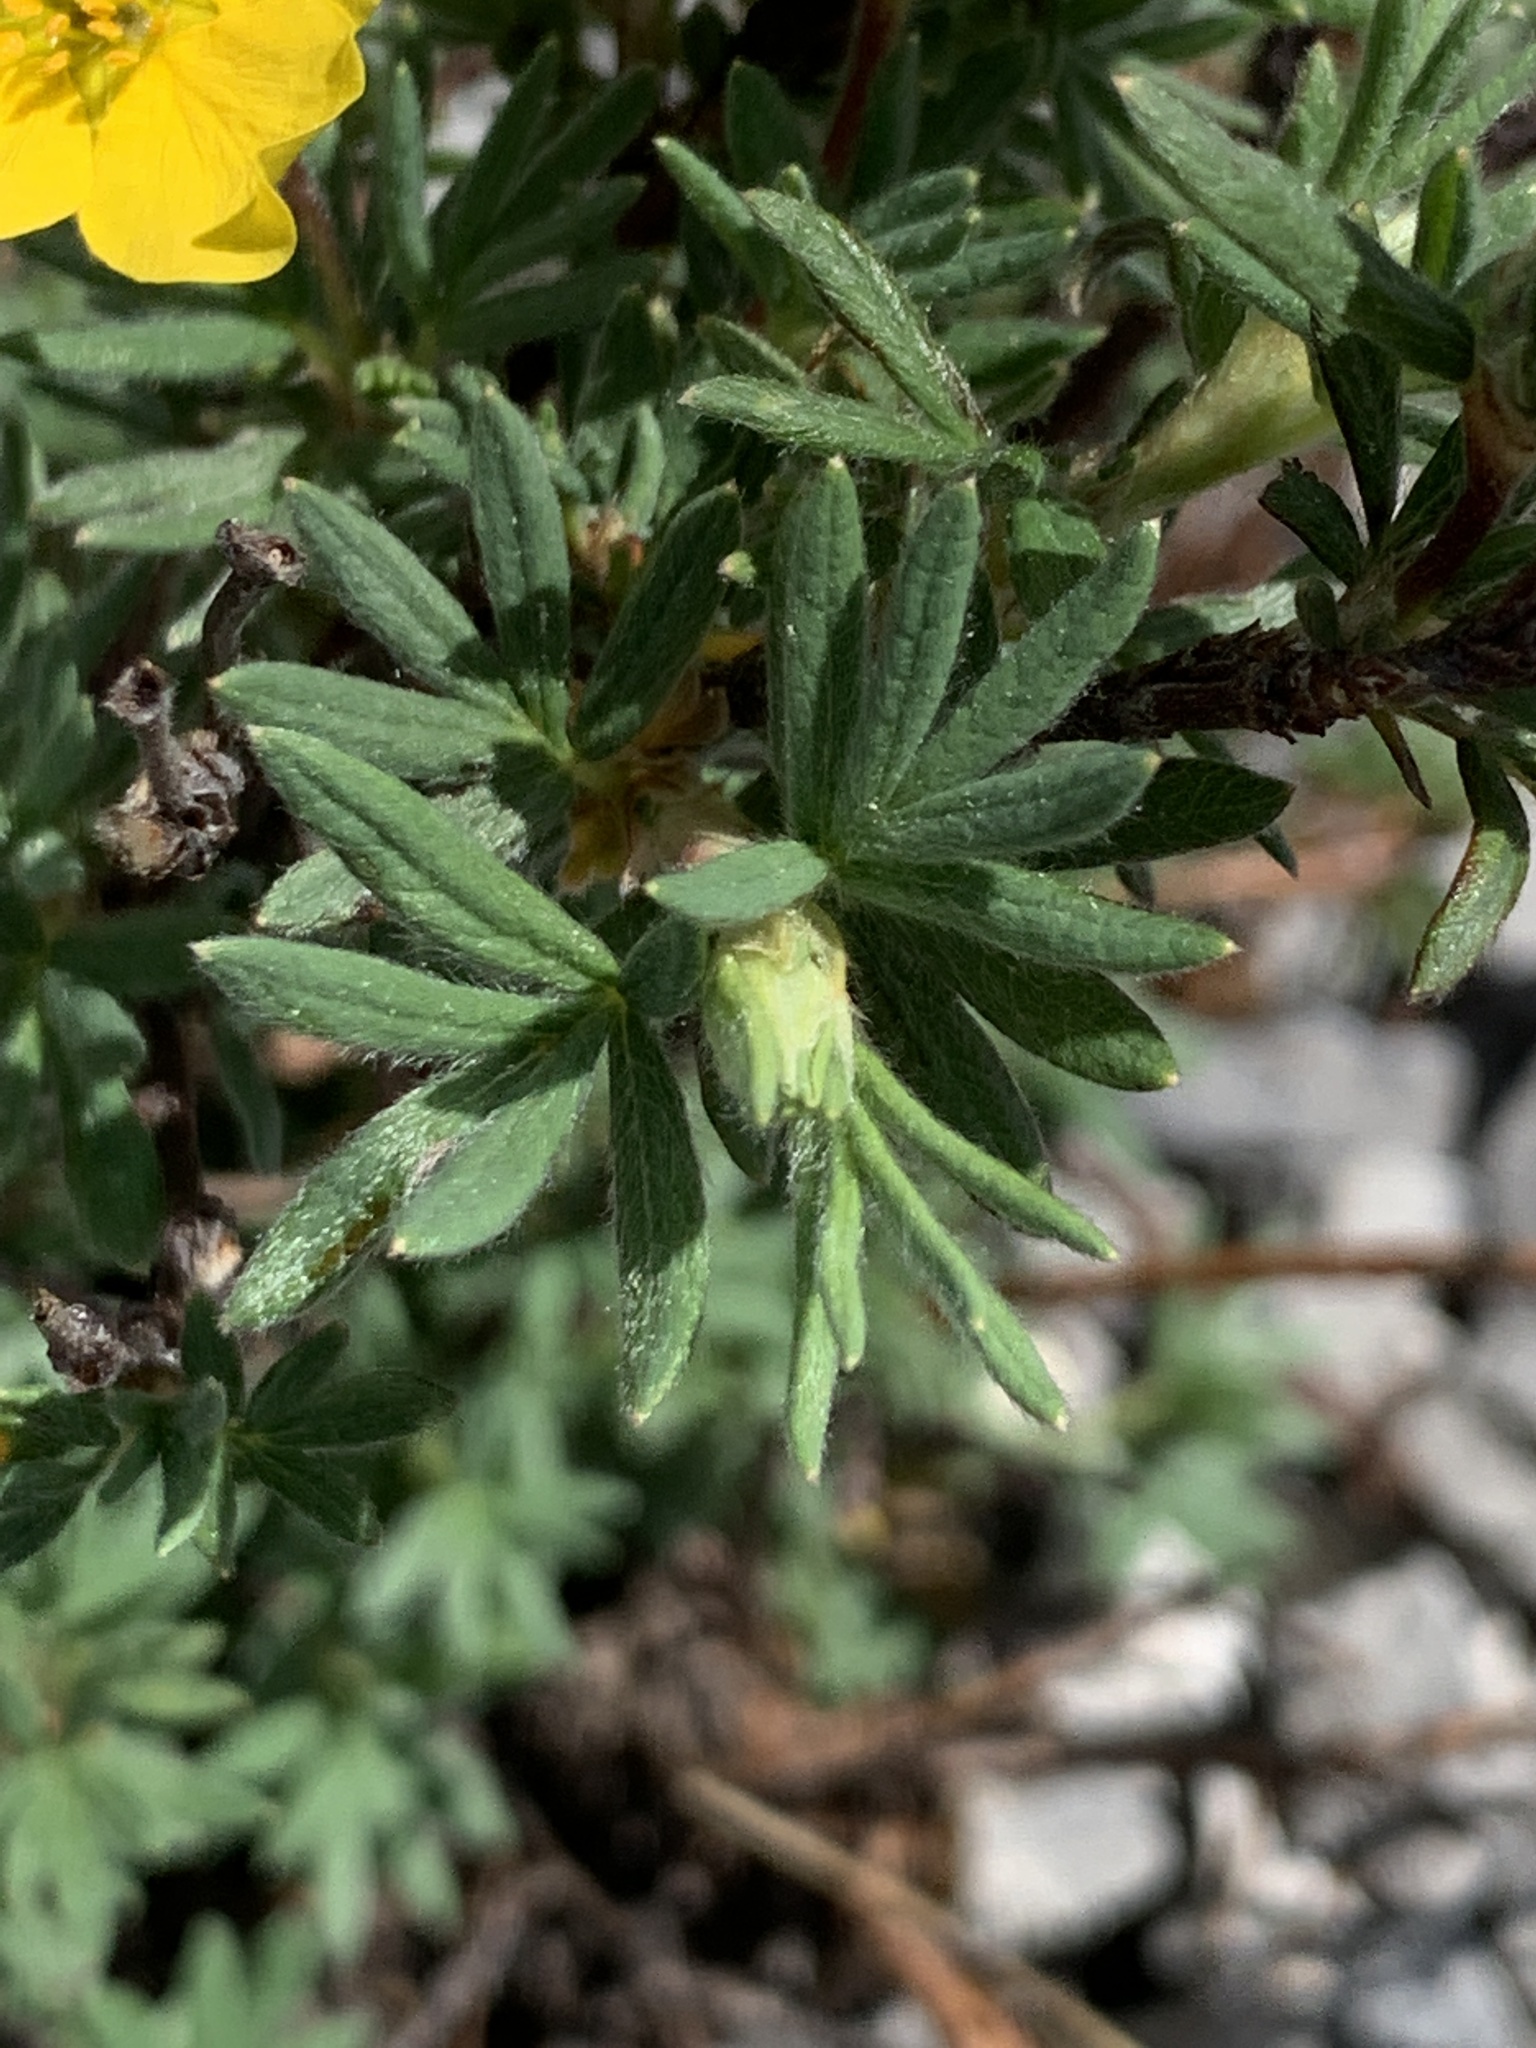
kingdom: Plantae
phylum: Tracheophyta
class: Magnoliopsida
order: Rosales
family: Rosaceae
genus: Dasiphora
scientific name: Dasiphora fruticosa
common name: Shrubby cinquefoil
